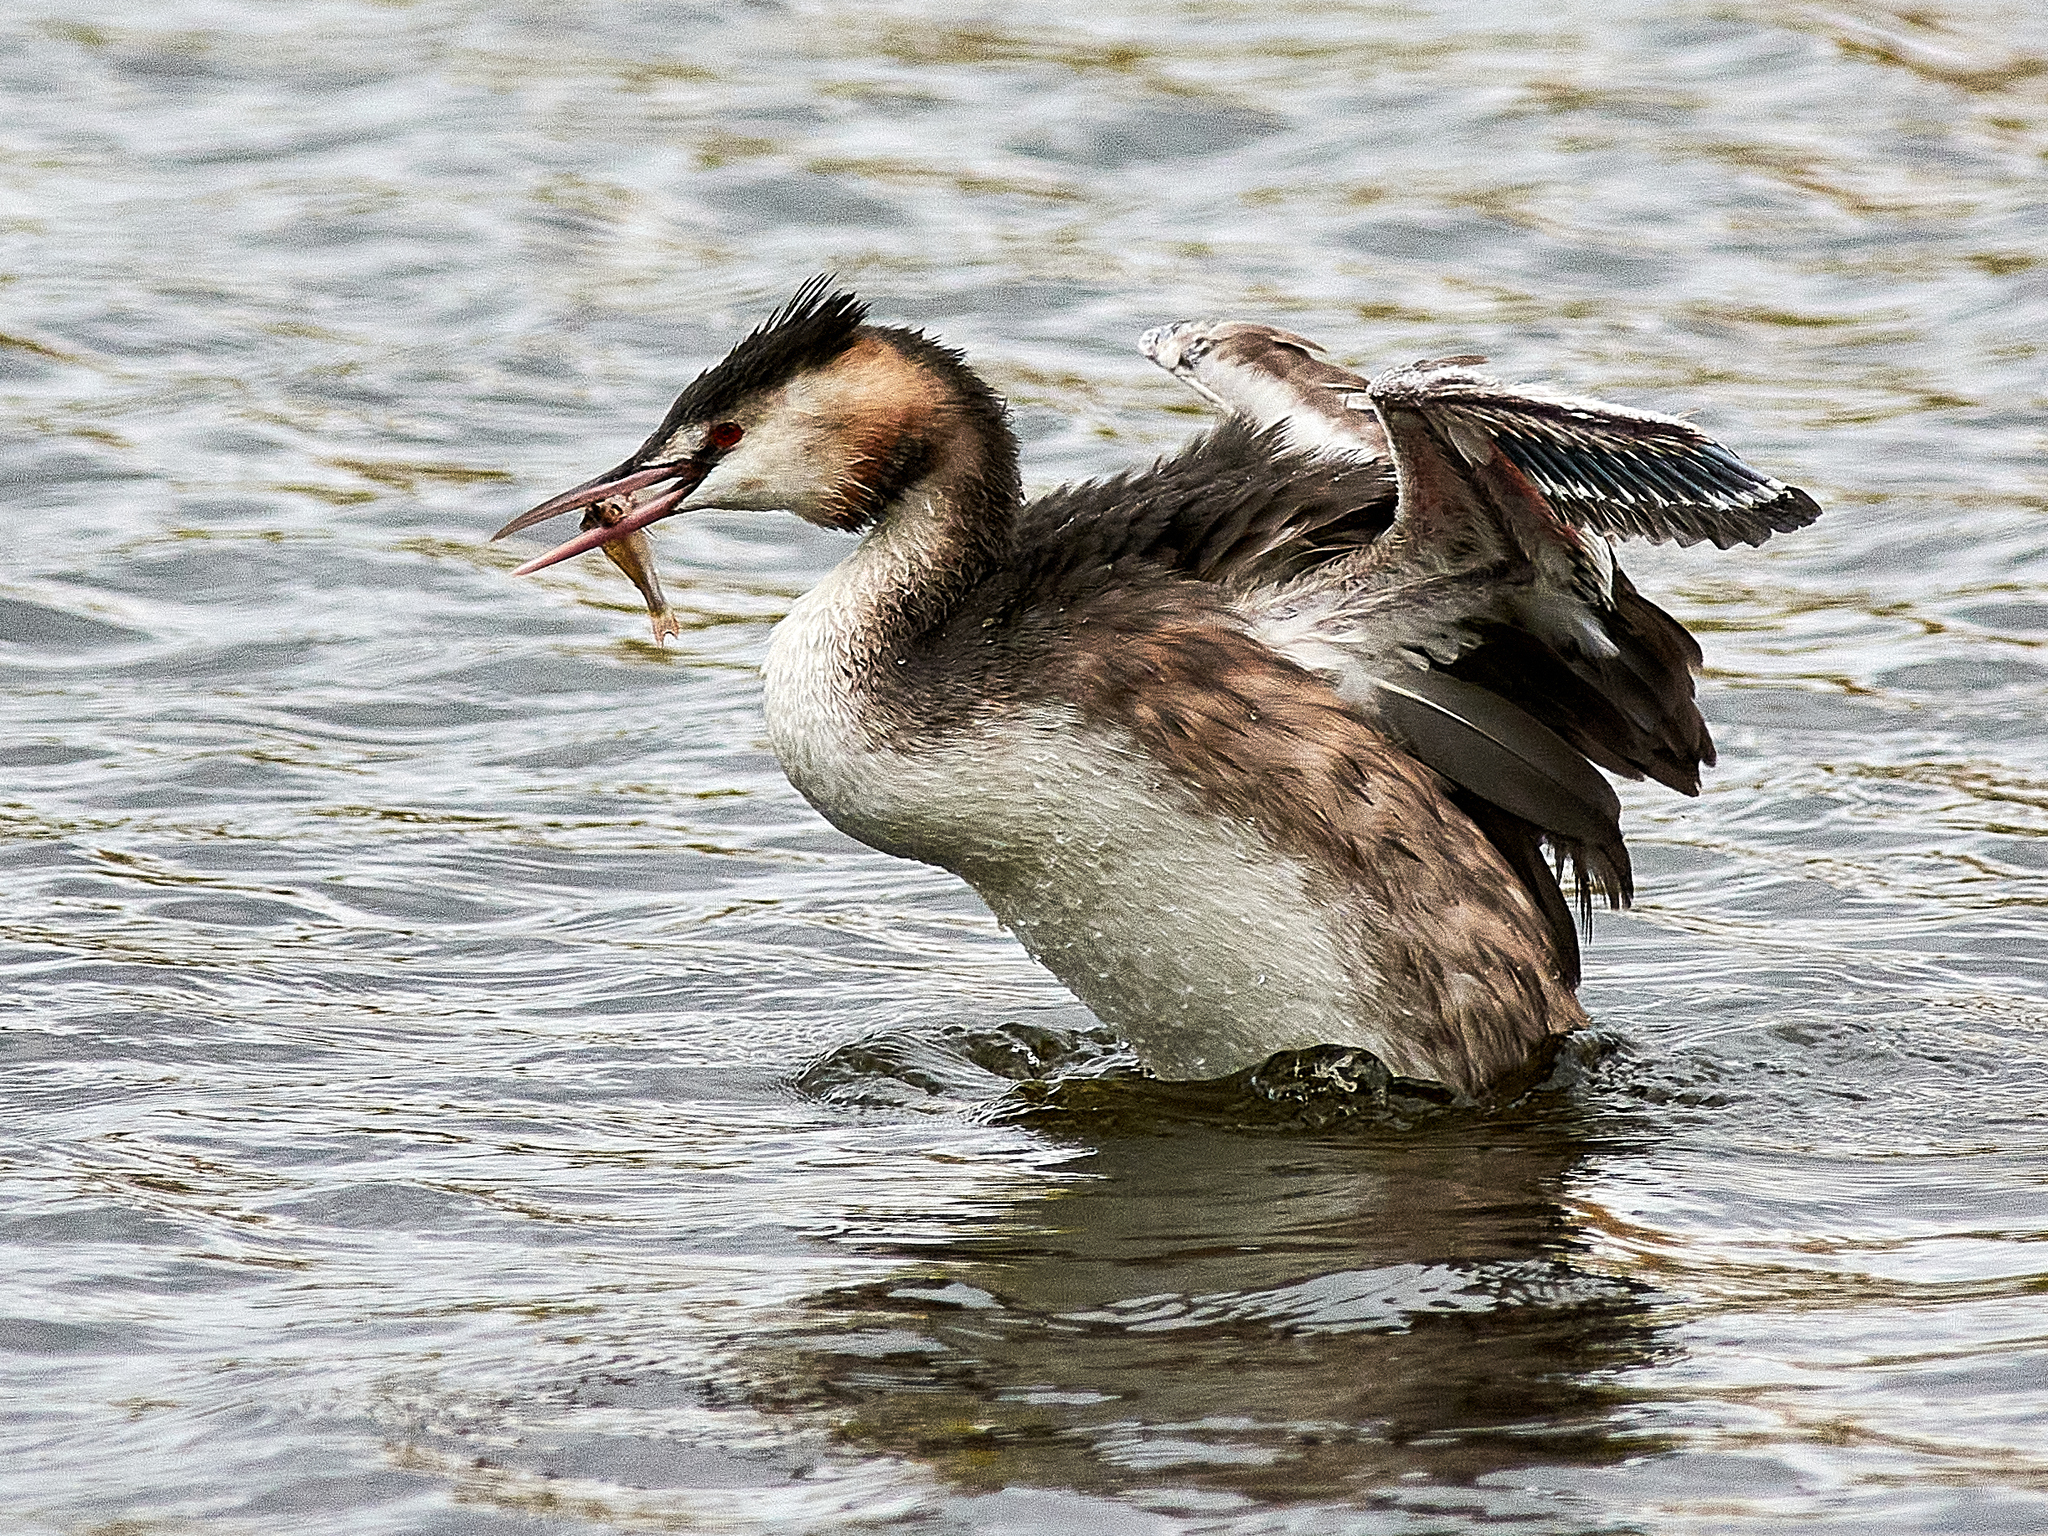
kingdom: Animalia
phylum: Chordata
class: Aves
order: Podicipediformes
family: Podicipedidae
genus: Podiceps
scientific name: Podiceps cristatus
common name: Great crested grebe
